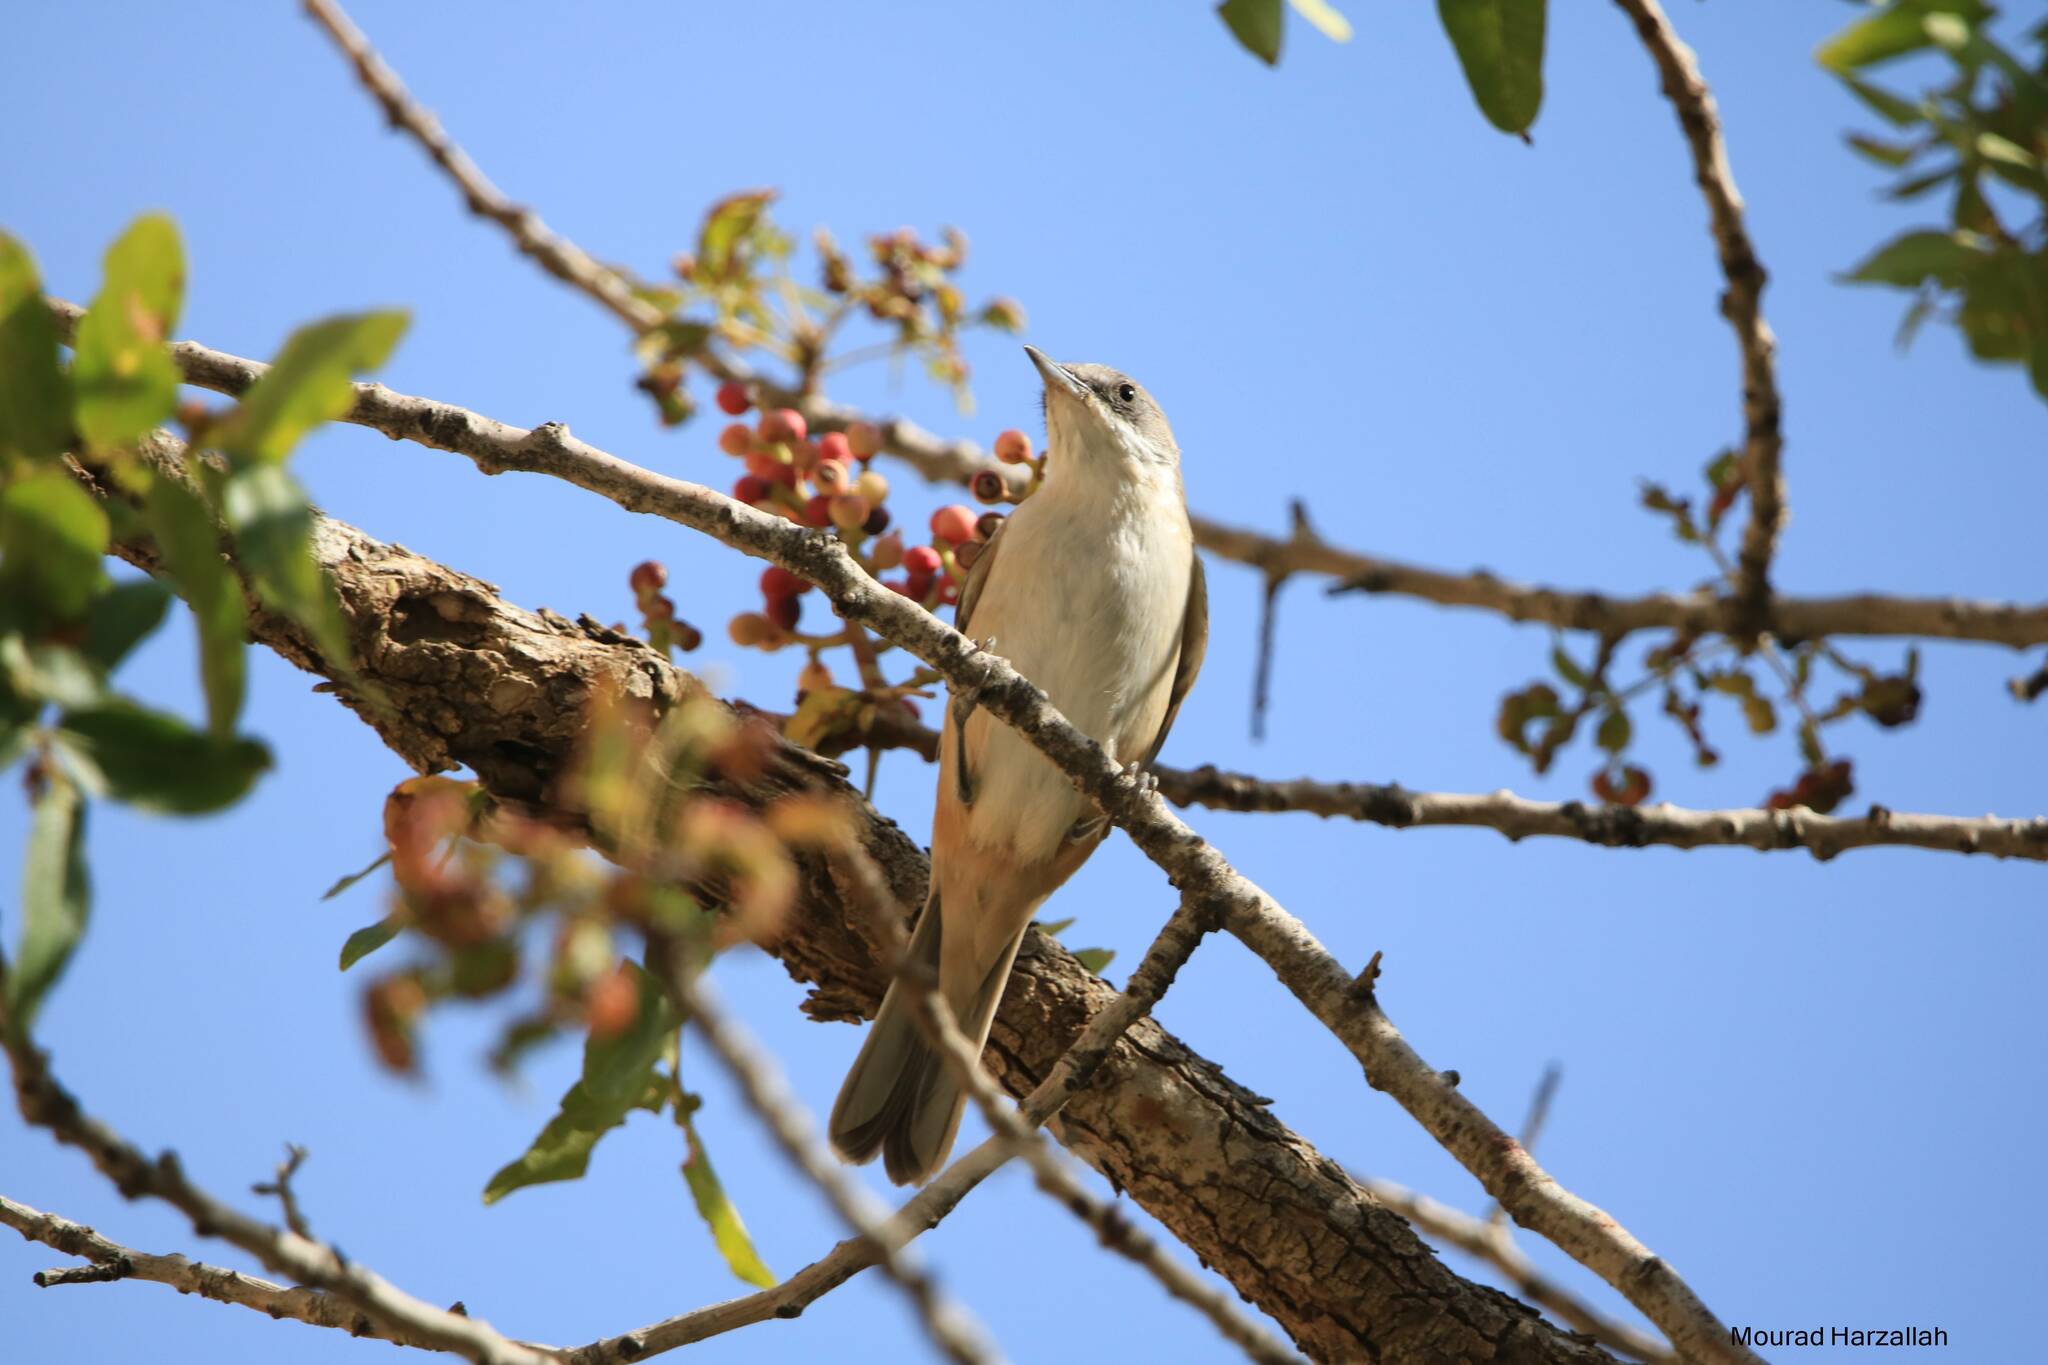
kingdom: Animalia
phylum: Chordata
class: Aves
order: Passeriformes
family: Sylviidae
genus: Sylvia
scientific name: Sylvia hortensis
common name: Orphean warbler
